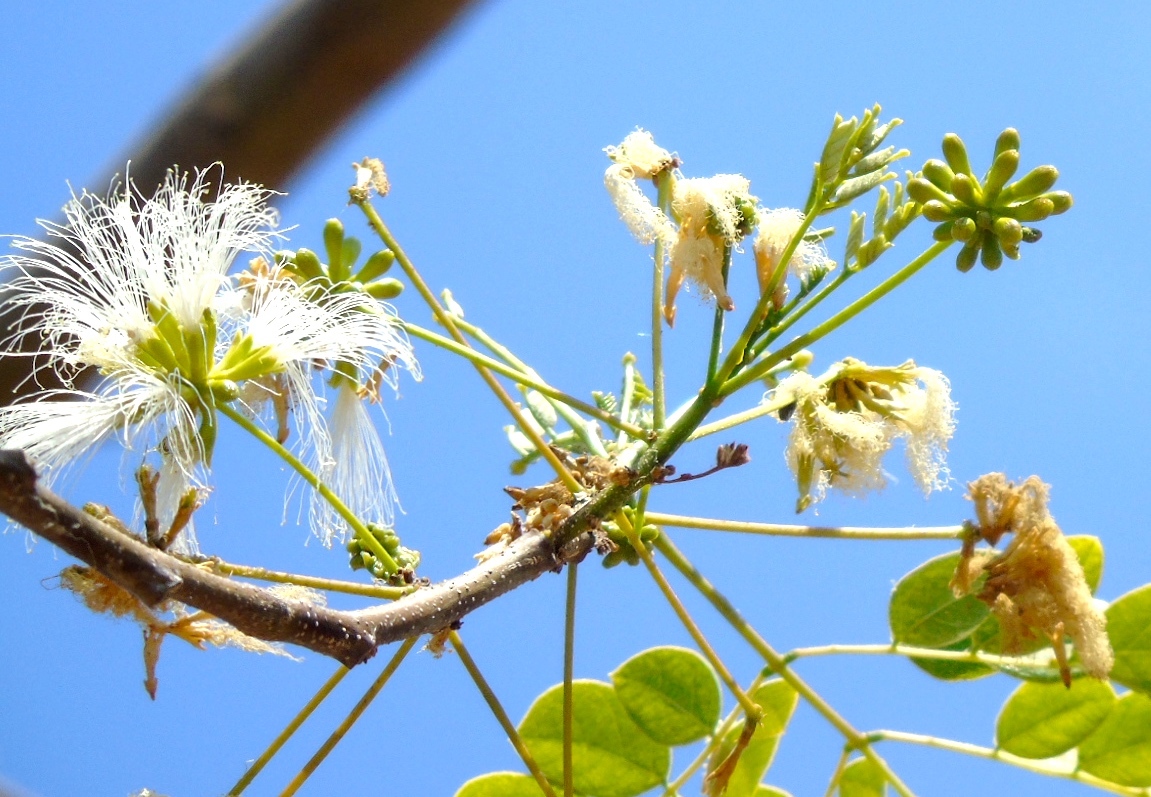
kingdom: Plantae
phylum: Tracheophyta
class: Magnoliopsida
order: Fabales
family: Fabaceae
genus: Albizia
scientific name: Albizia occidentalis
